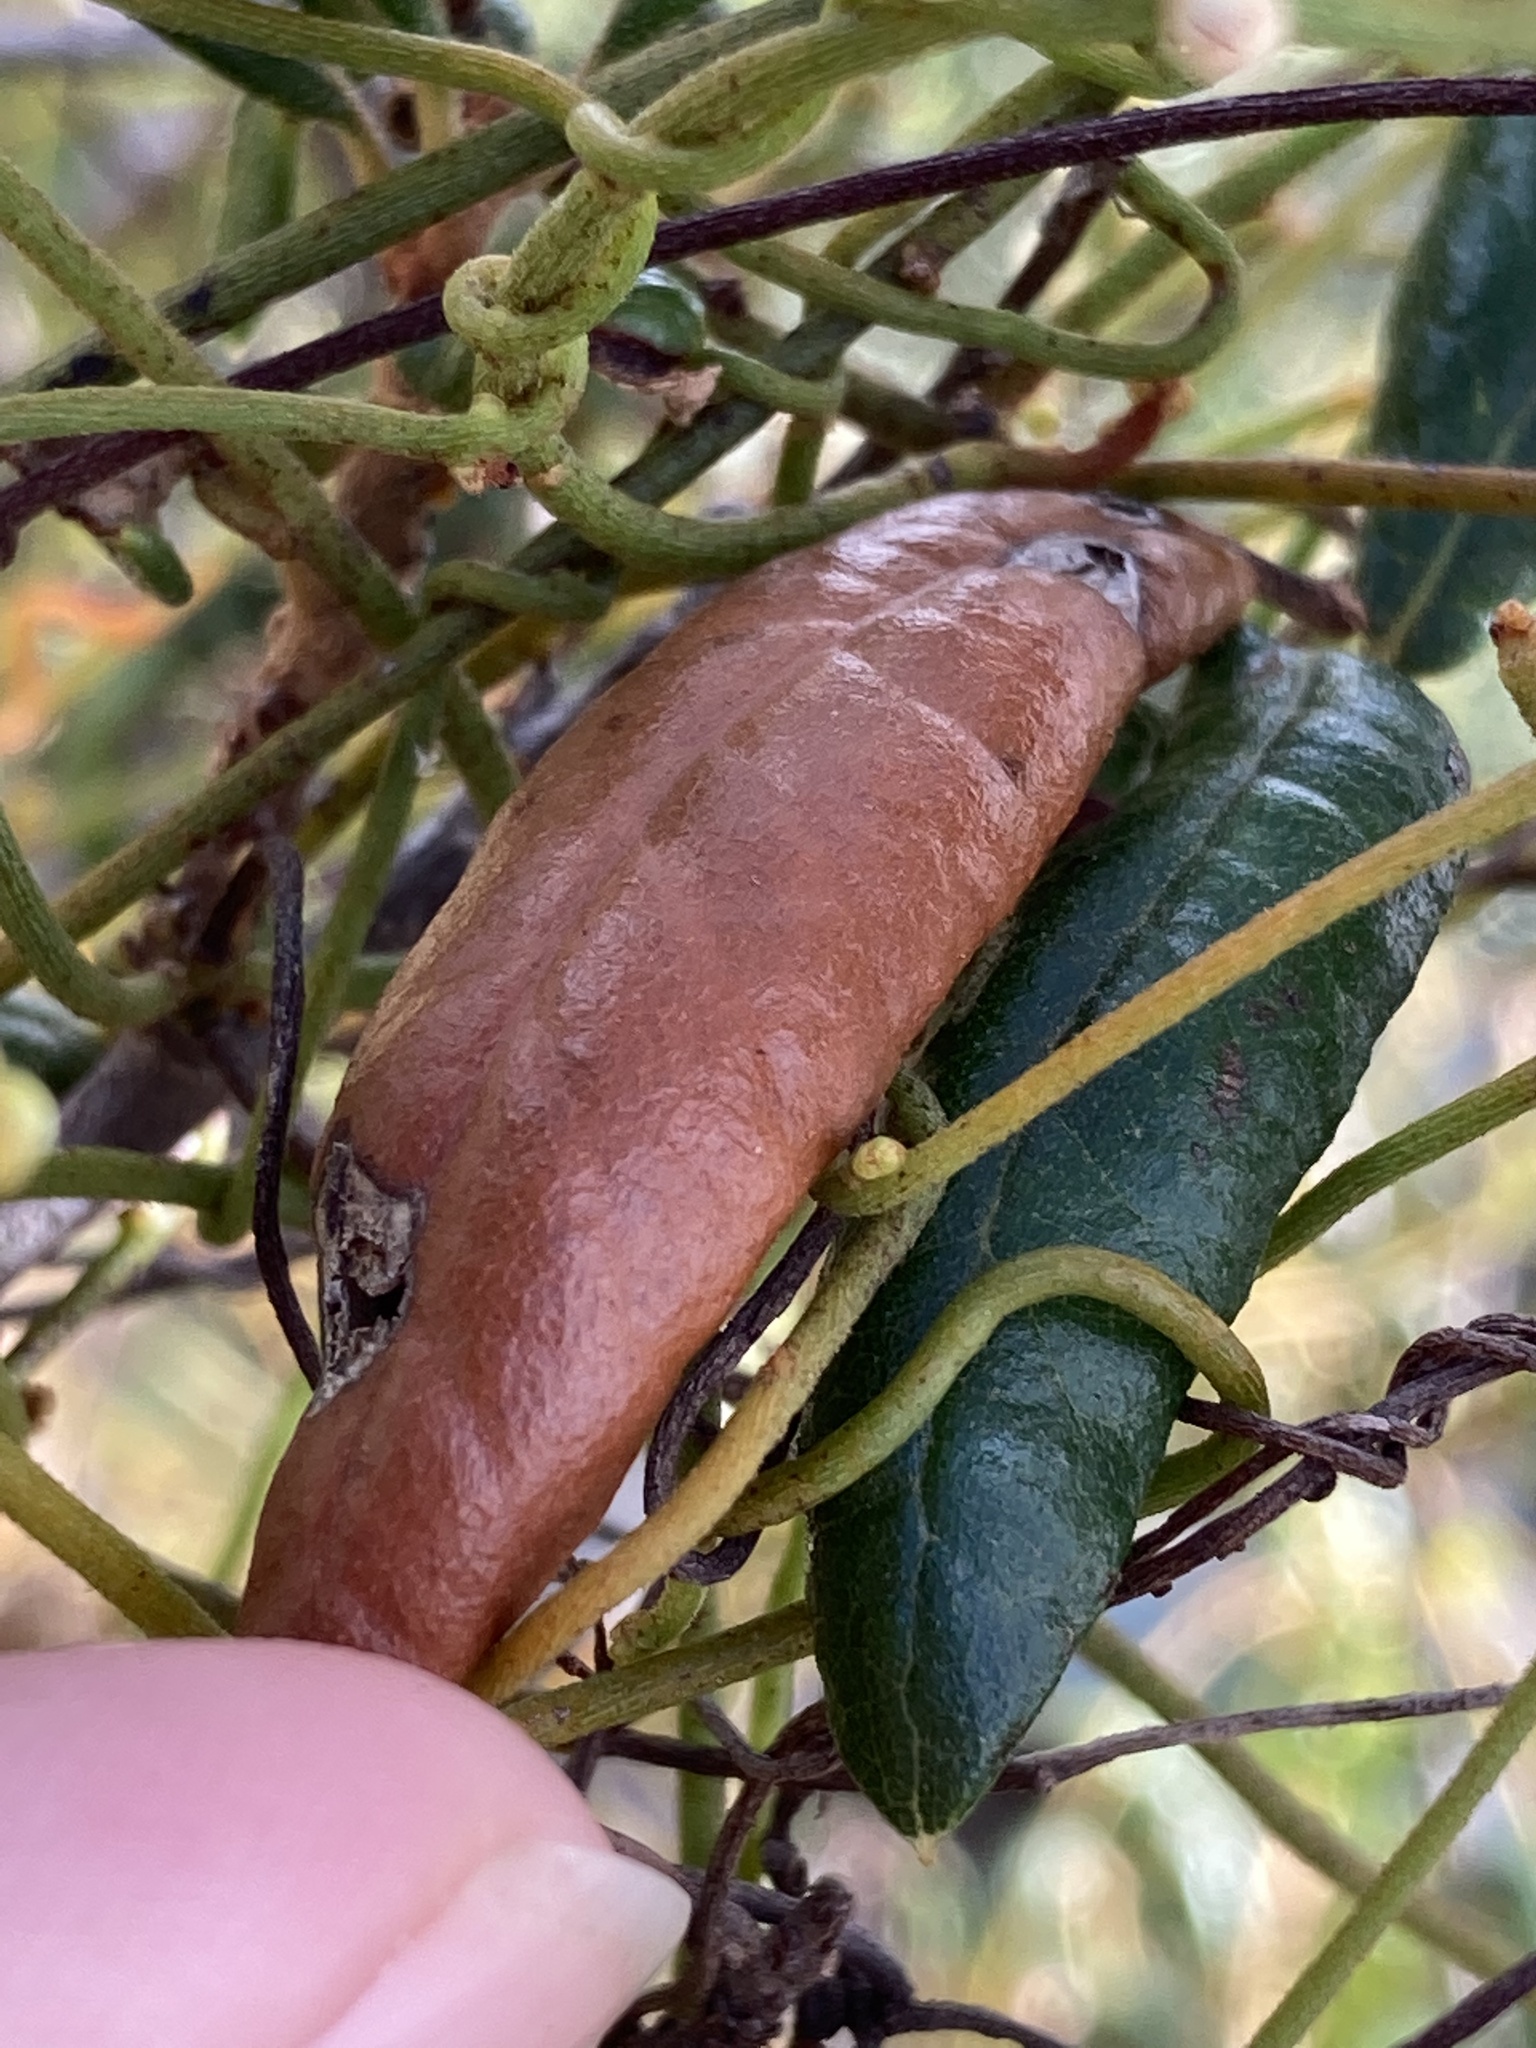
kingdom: Plantae
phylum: Tracheophyta
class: Magnoliopsida
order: Laurales
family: Lauraceae
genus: Cassytha
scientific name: Cassytha filiformis
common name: Dodder-laurel
